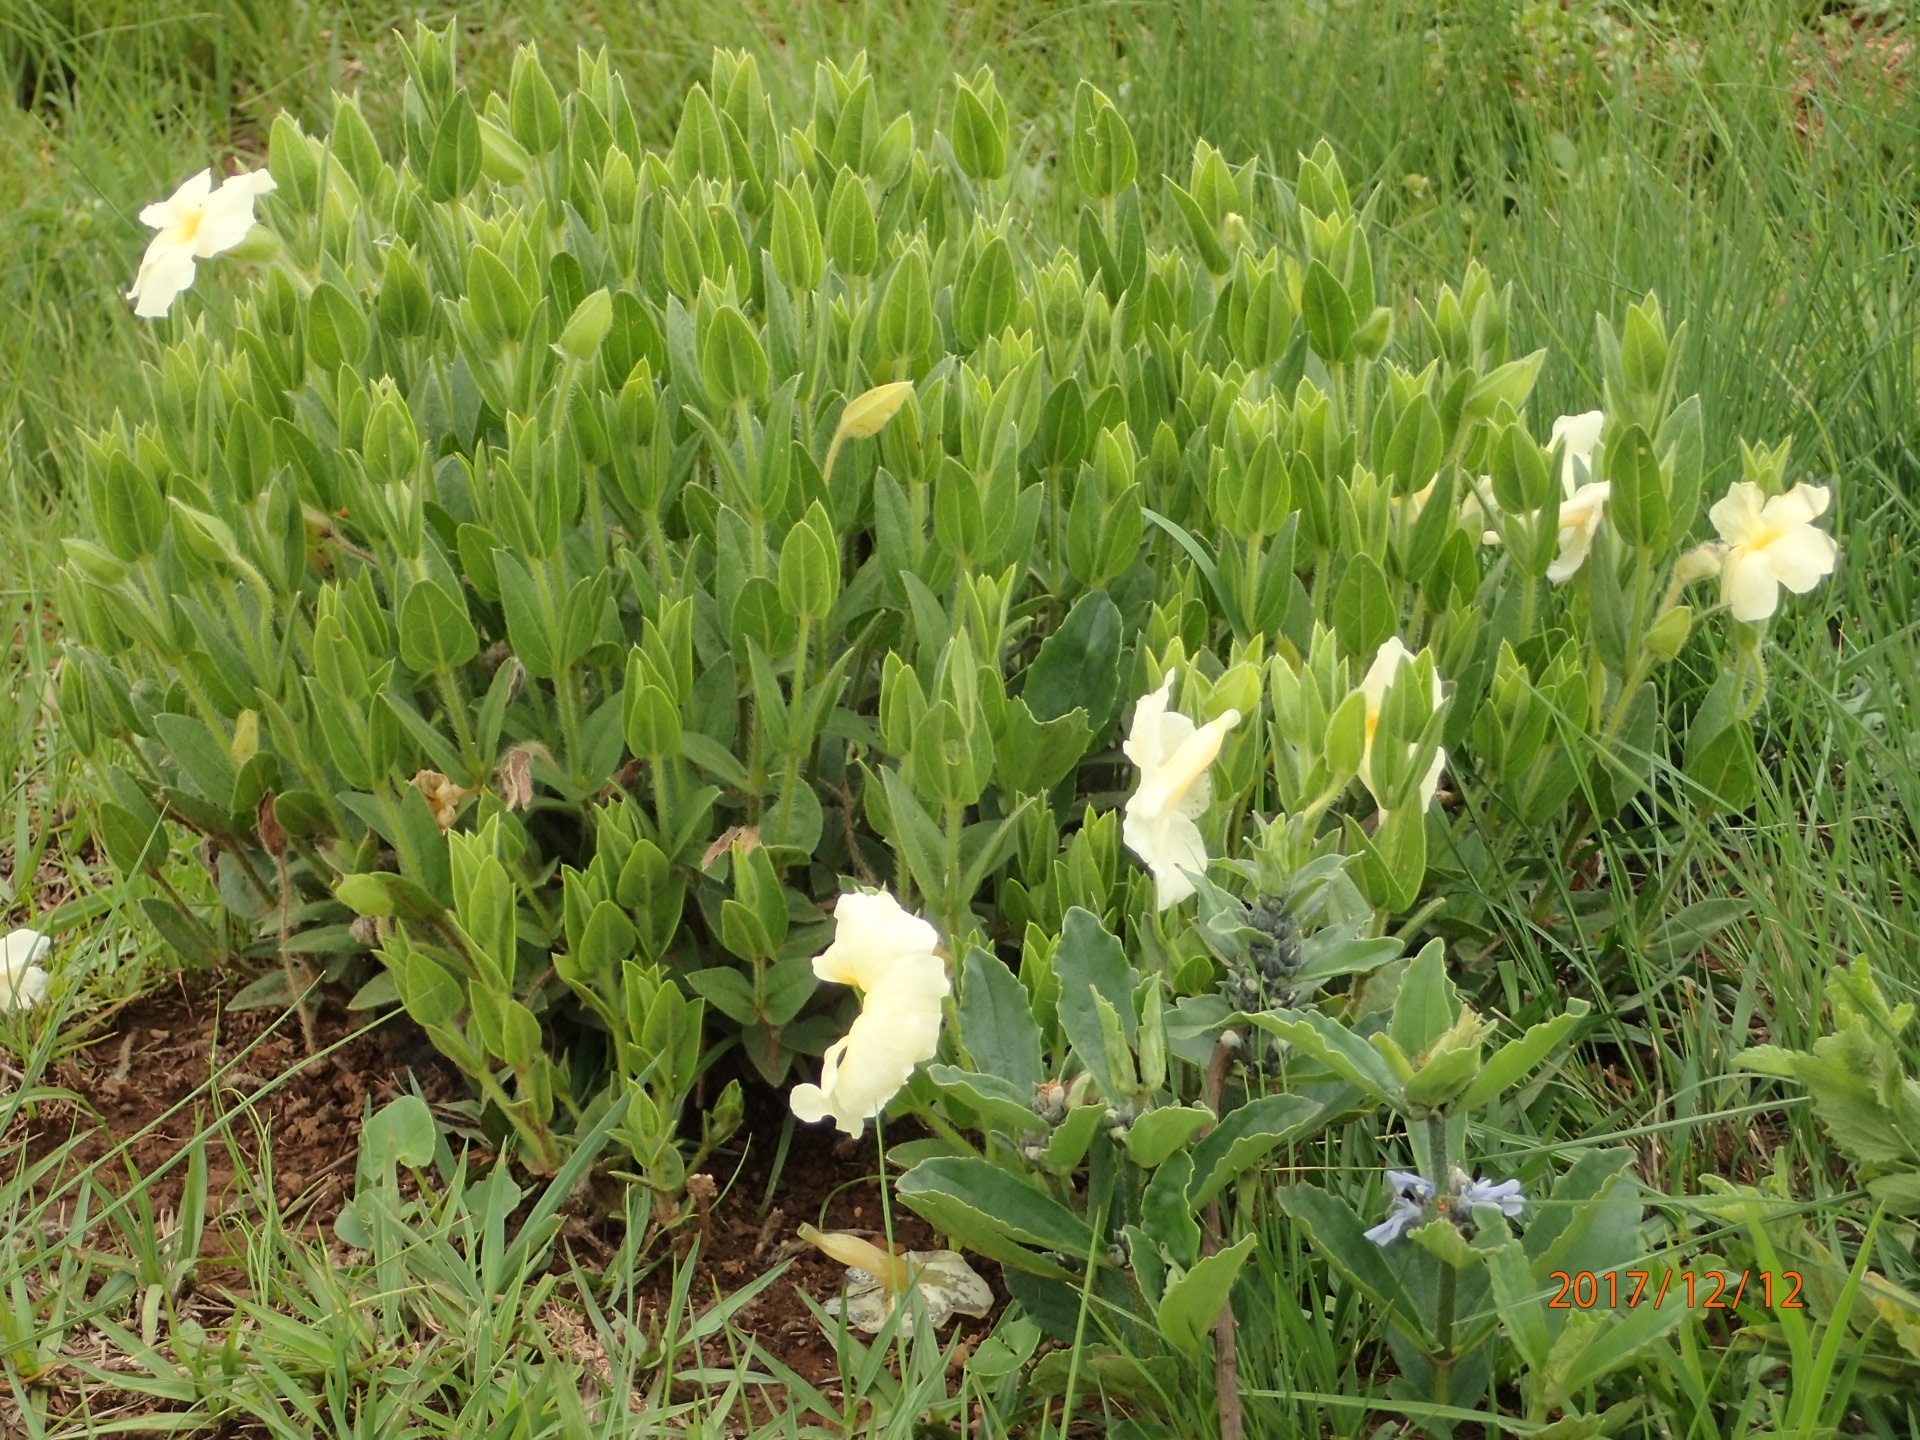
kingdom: Plantae
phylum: Tracheophyta
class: Magnoliopsida
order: Lamiales
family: Acanthaceae
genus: Thunbergia
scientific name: Thunbergia atriplicifolia
